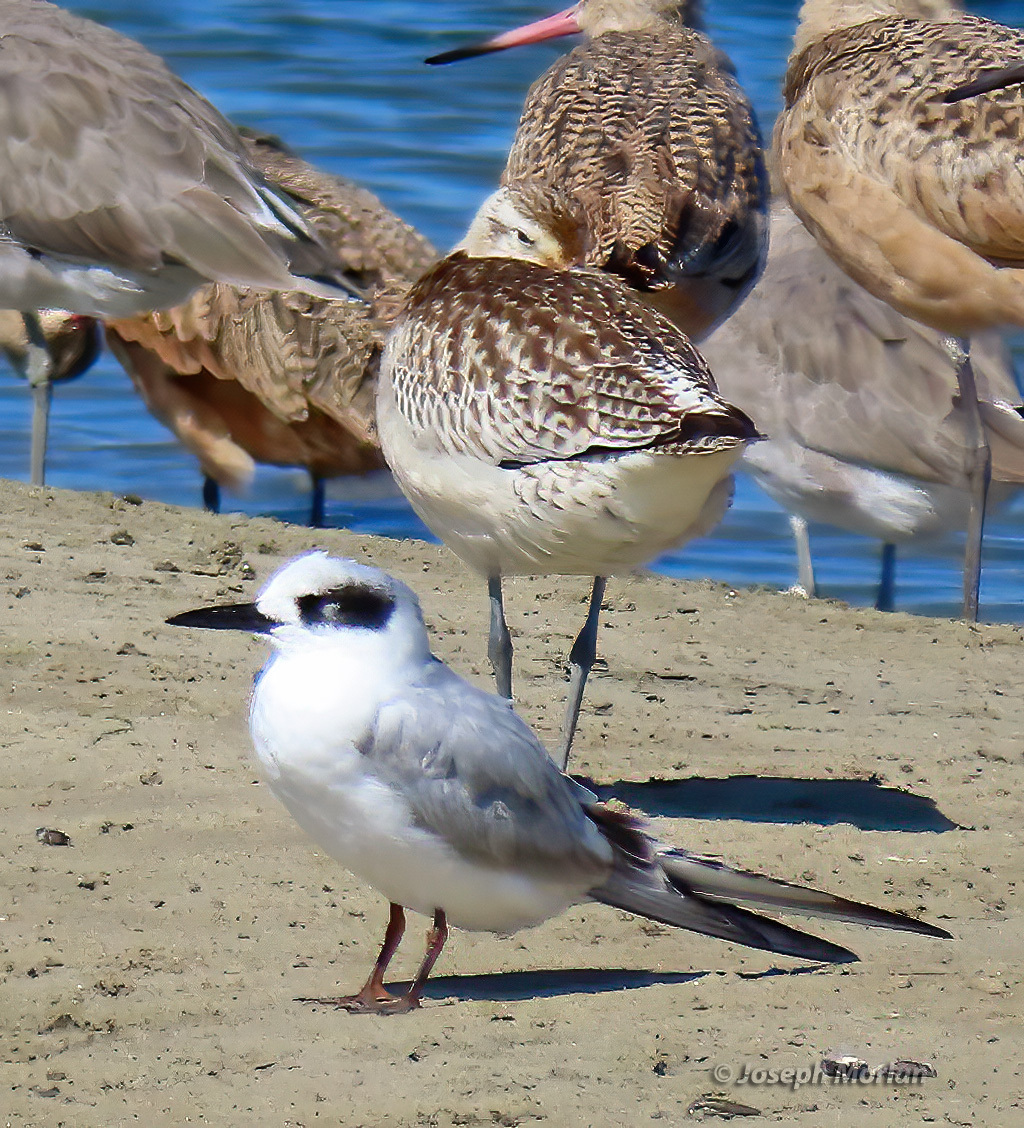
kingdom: Animalia
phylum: Chordata
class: Aves
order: Charadriiformes
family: Laridae
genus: Sterna
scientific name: Sterna forsteri
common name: Forster's tern
